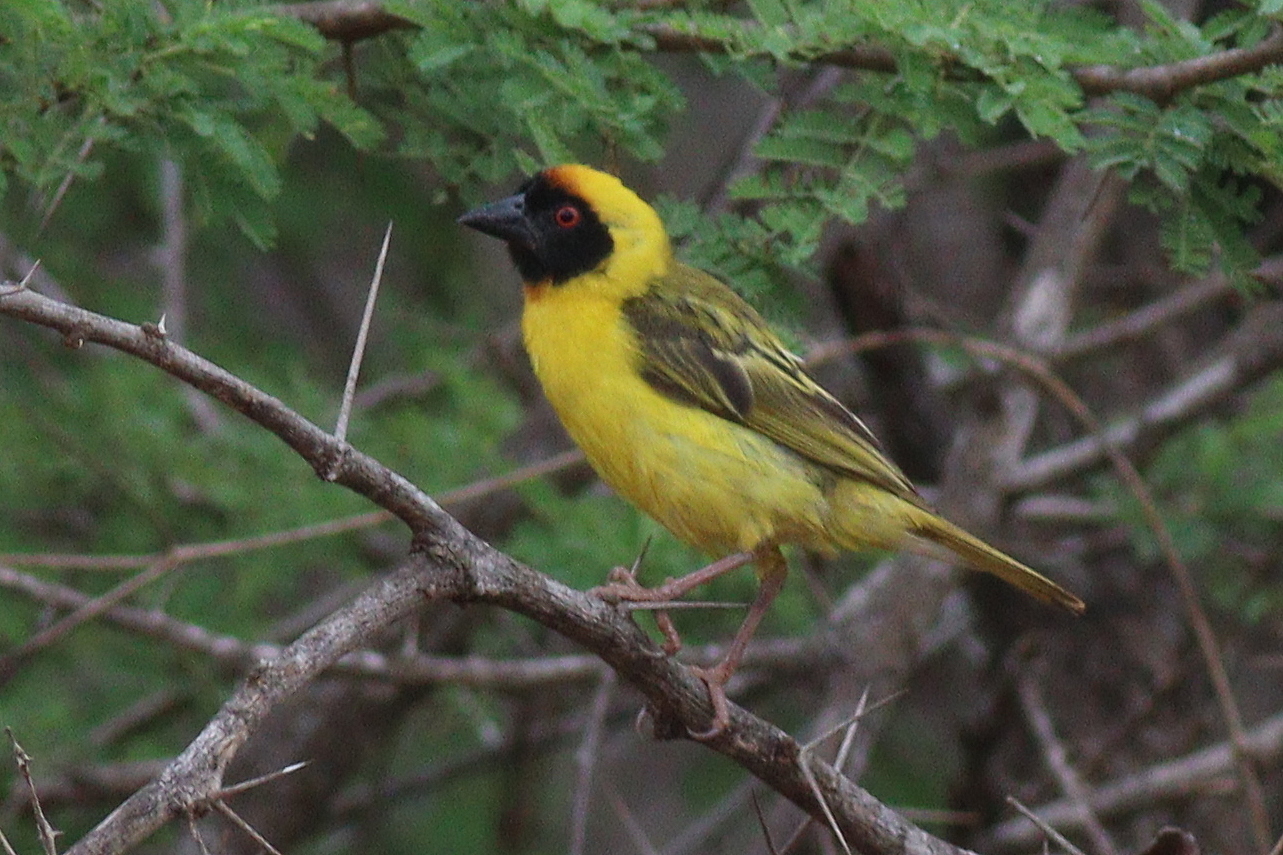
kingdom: Animalia
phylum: Chordata
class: Aves
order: Passeriformes
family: Ploceidae
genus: Ploceus
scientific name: Ploceus vitellinus
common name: Vitelline masked weaver
